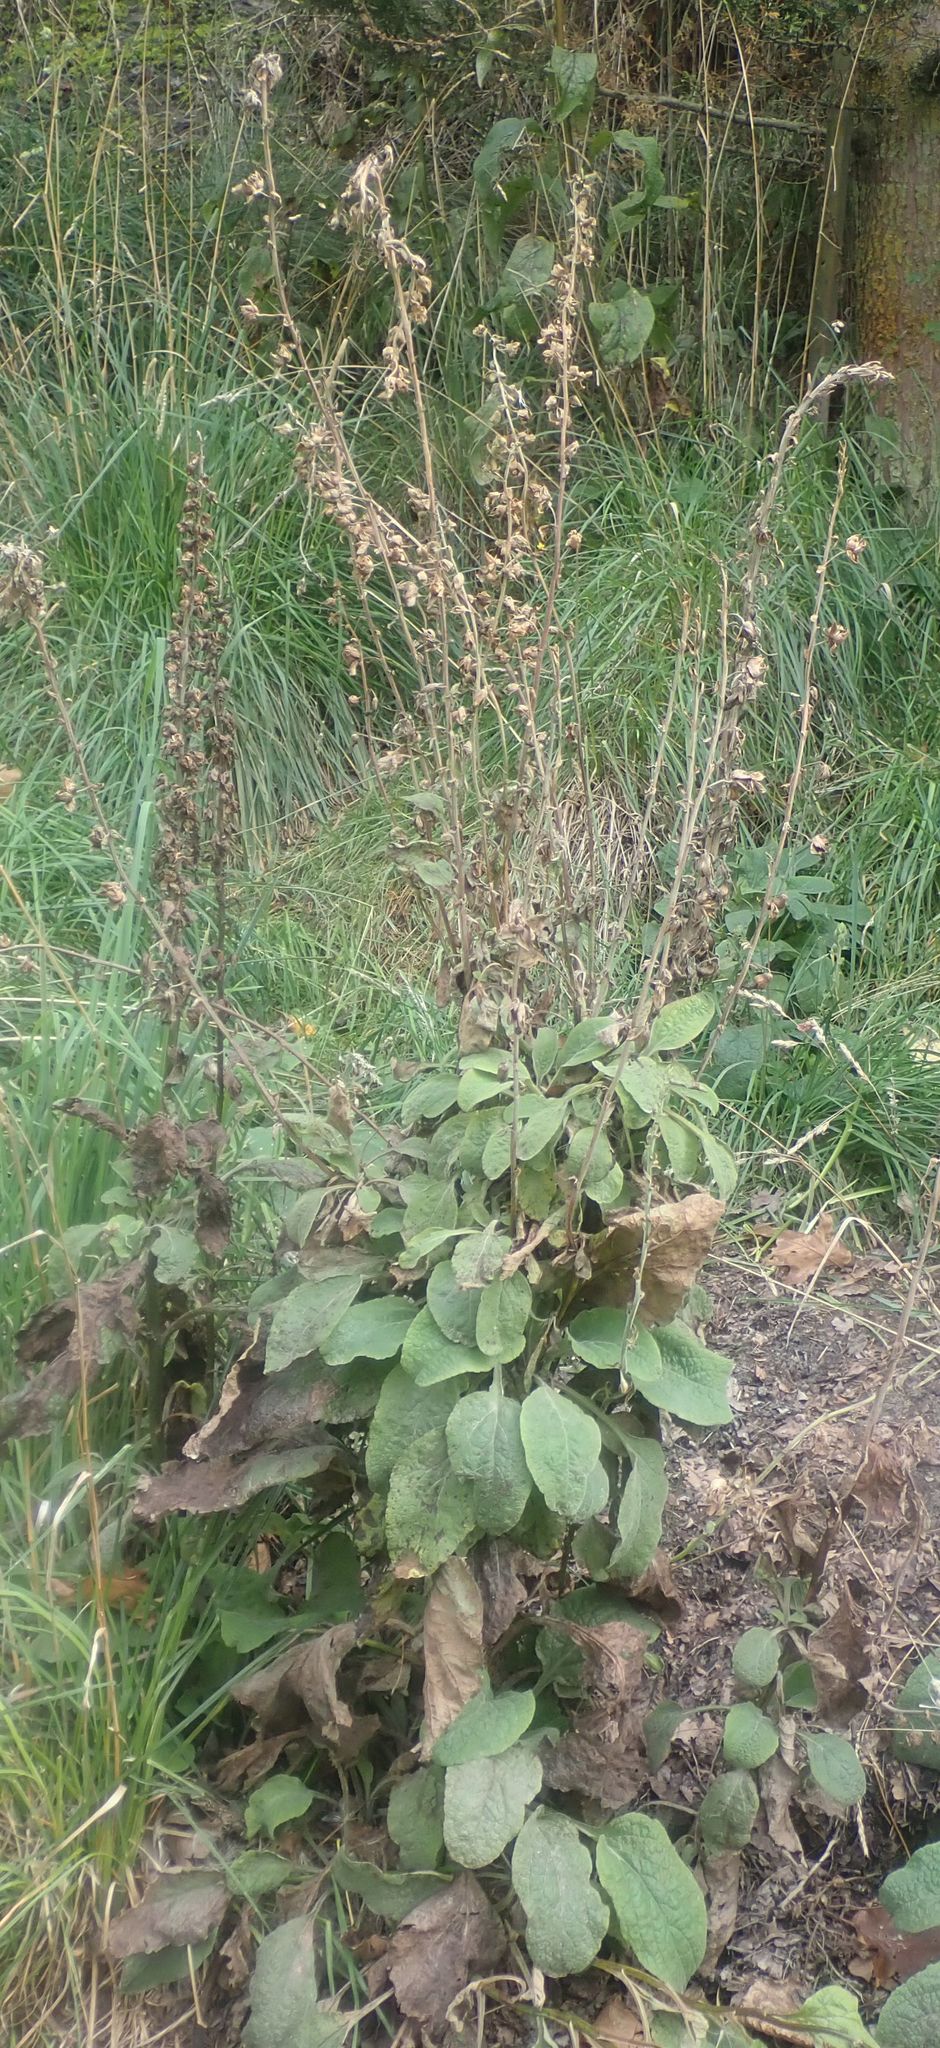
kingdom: Plantae
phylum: Tracheophyta
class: Magnoliopsida
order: Lamiales
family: Plantaginaceae
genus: Digitalis
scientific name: Digitalis purpurea
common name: Foxglove
